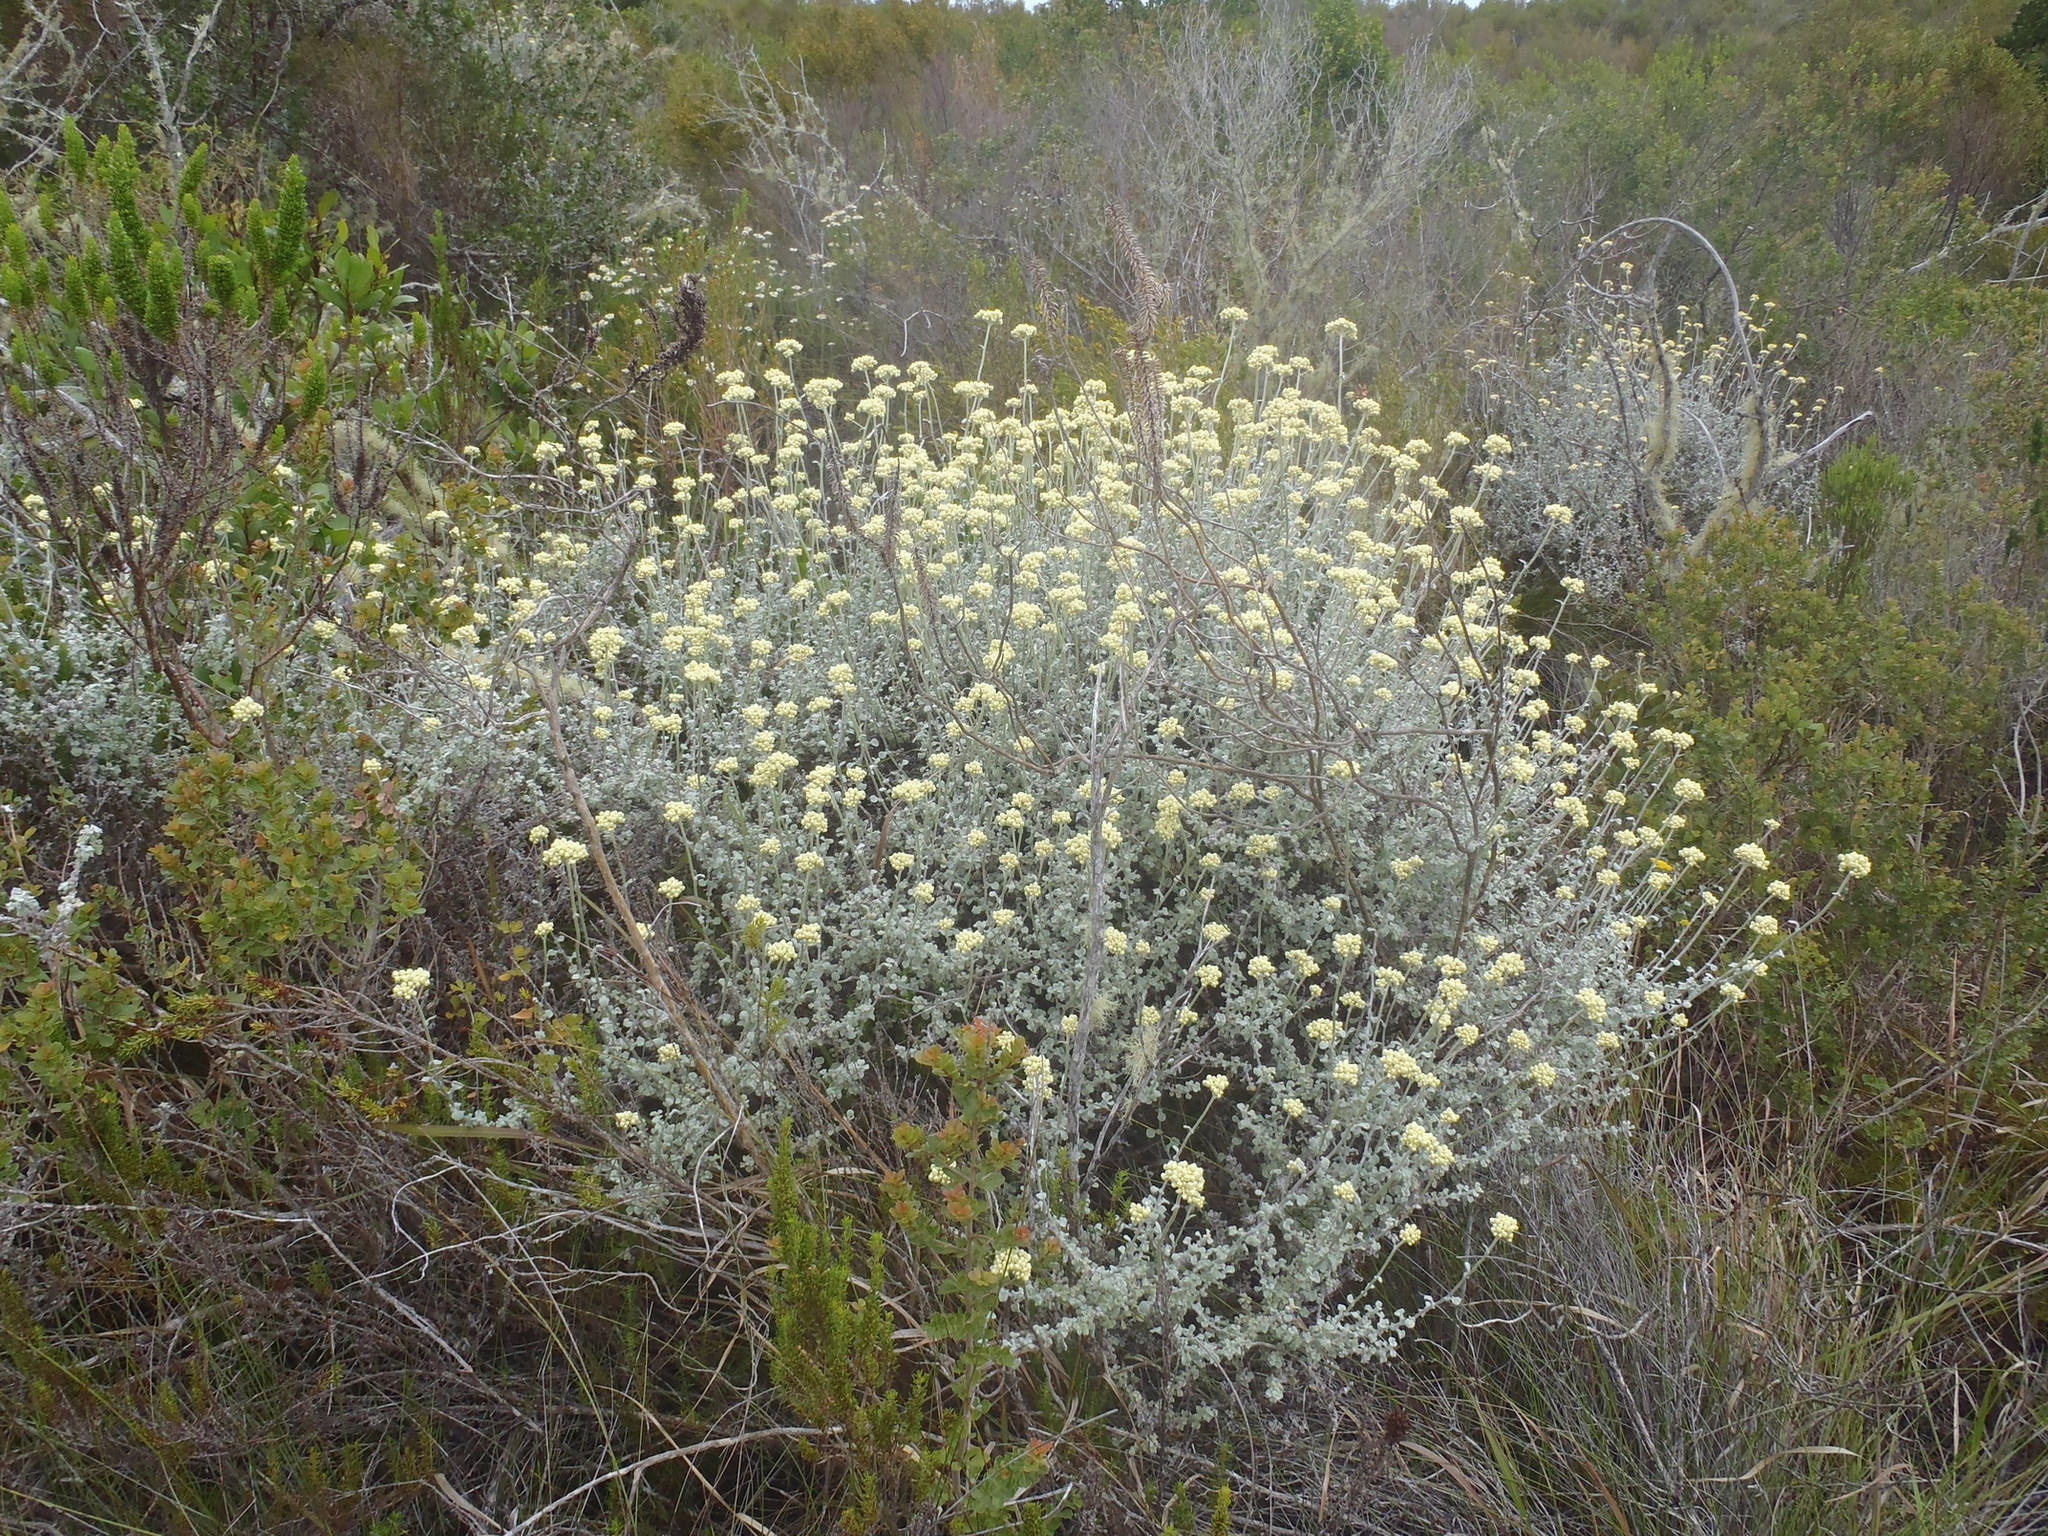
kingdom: Plantae
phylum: Tracheophyta
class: Magnoliopsida
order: Asterales
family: Asteraceae
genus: Helichrysum
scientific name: Helichrysum patulum
